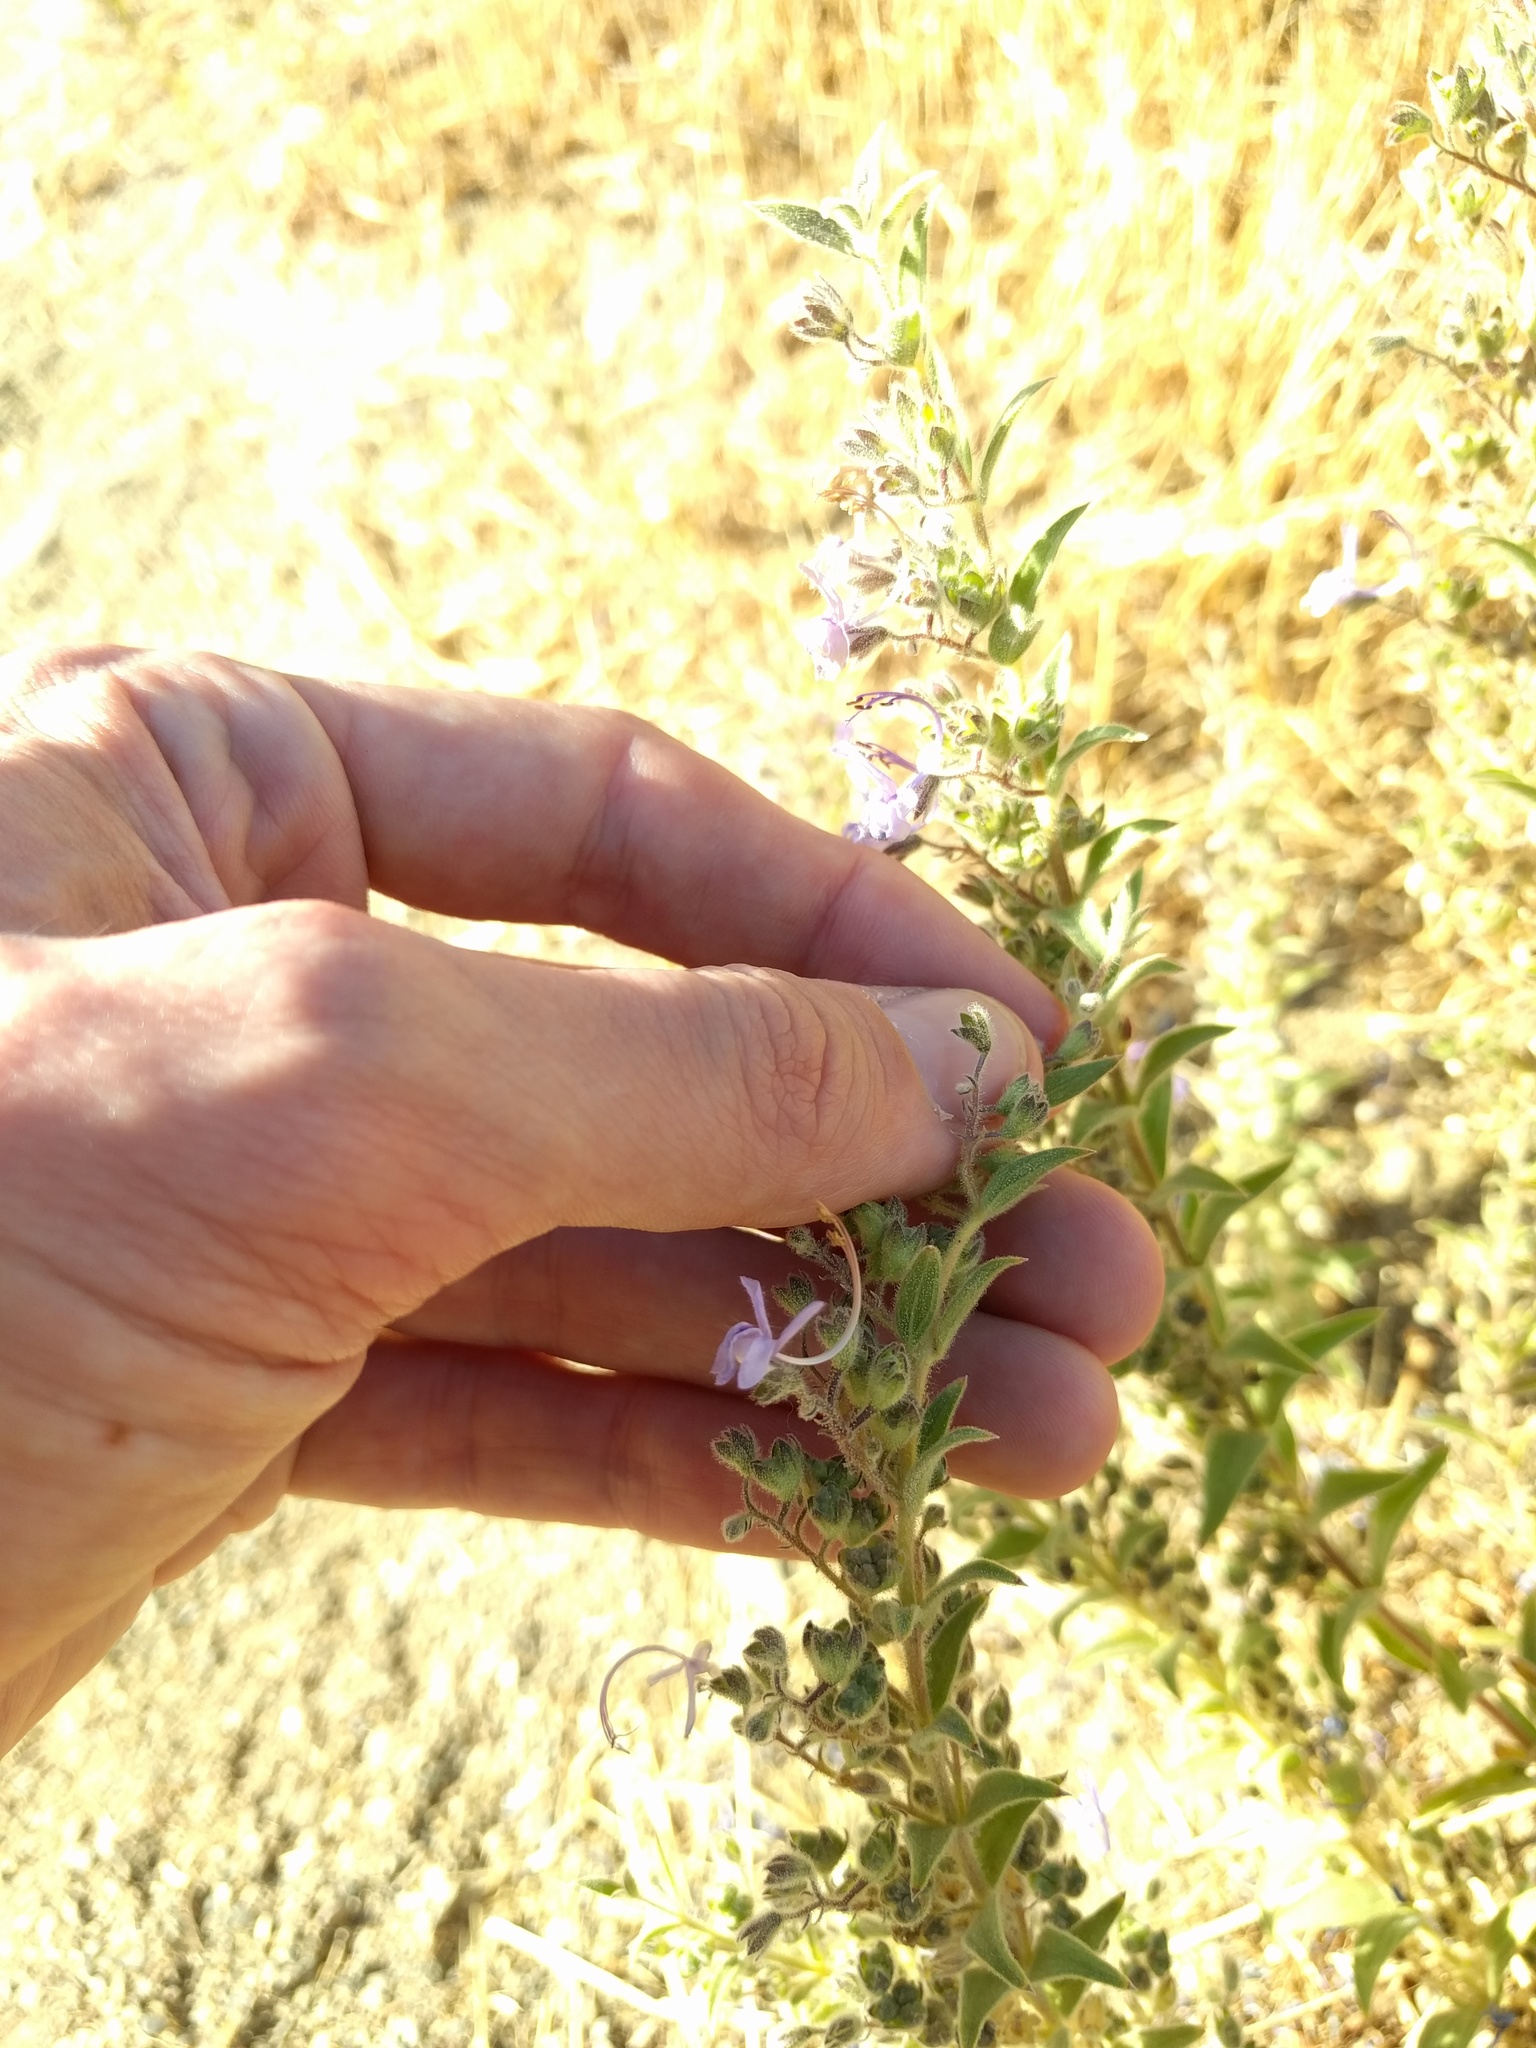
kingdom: Plantae
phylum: Tracheophyta
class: Magnoliopsida
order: Lamiales
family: Lamiaceae
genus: Trichostema
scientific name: Trichostema lanceolatum
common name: Vinegar-weed
